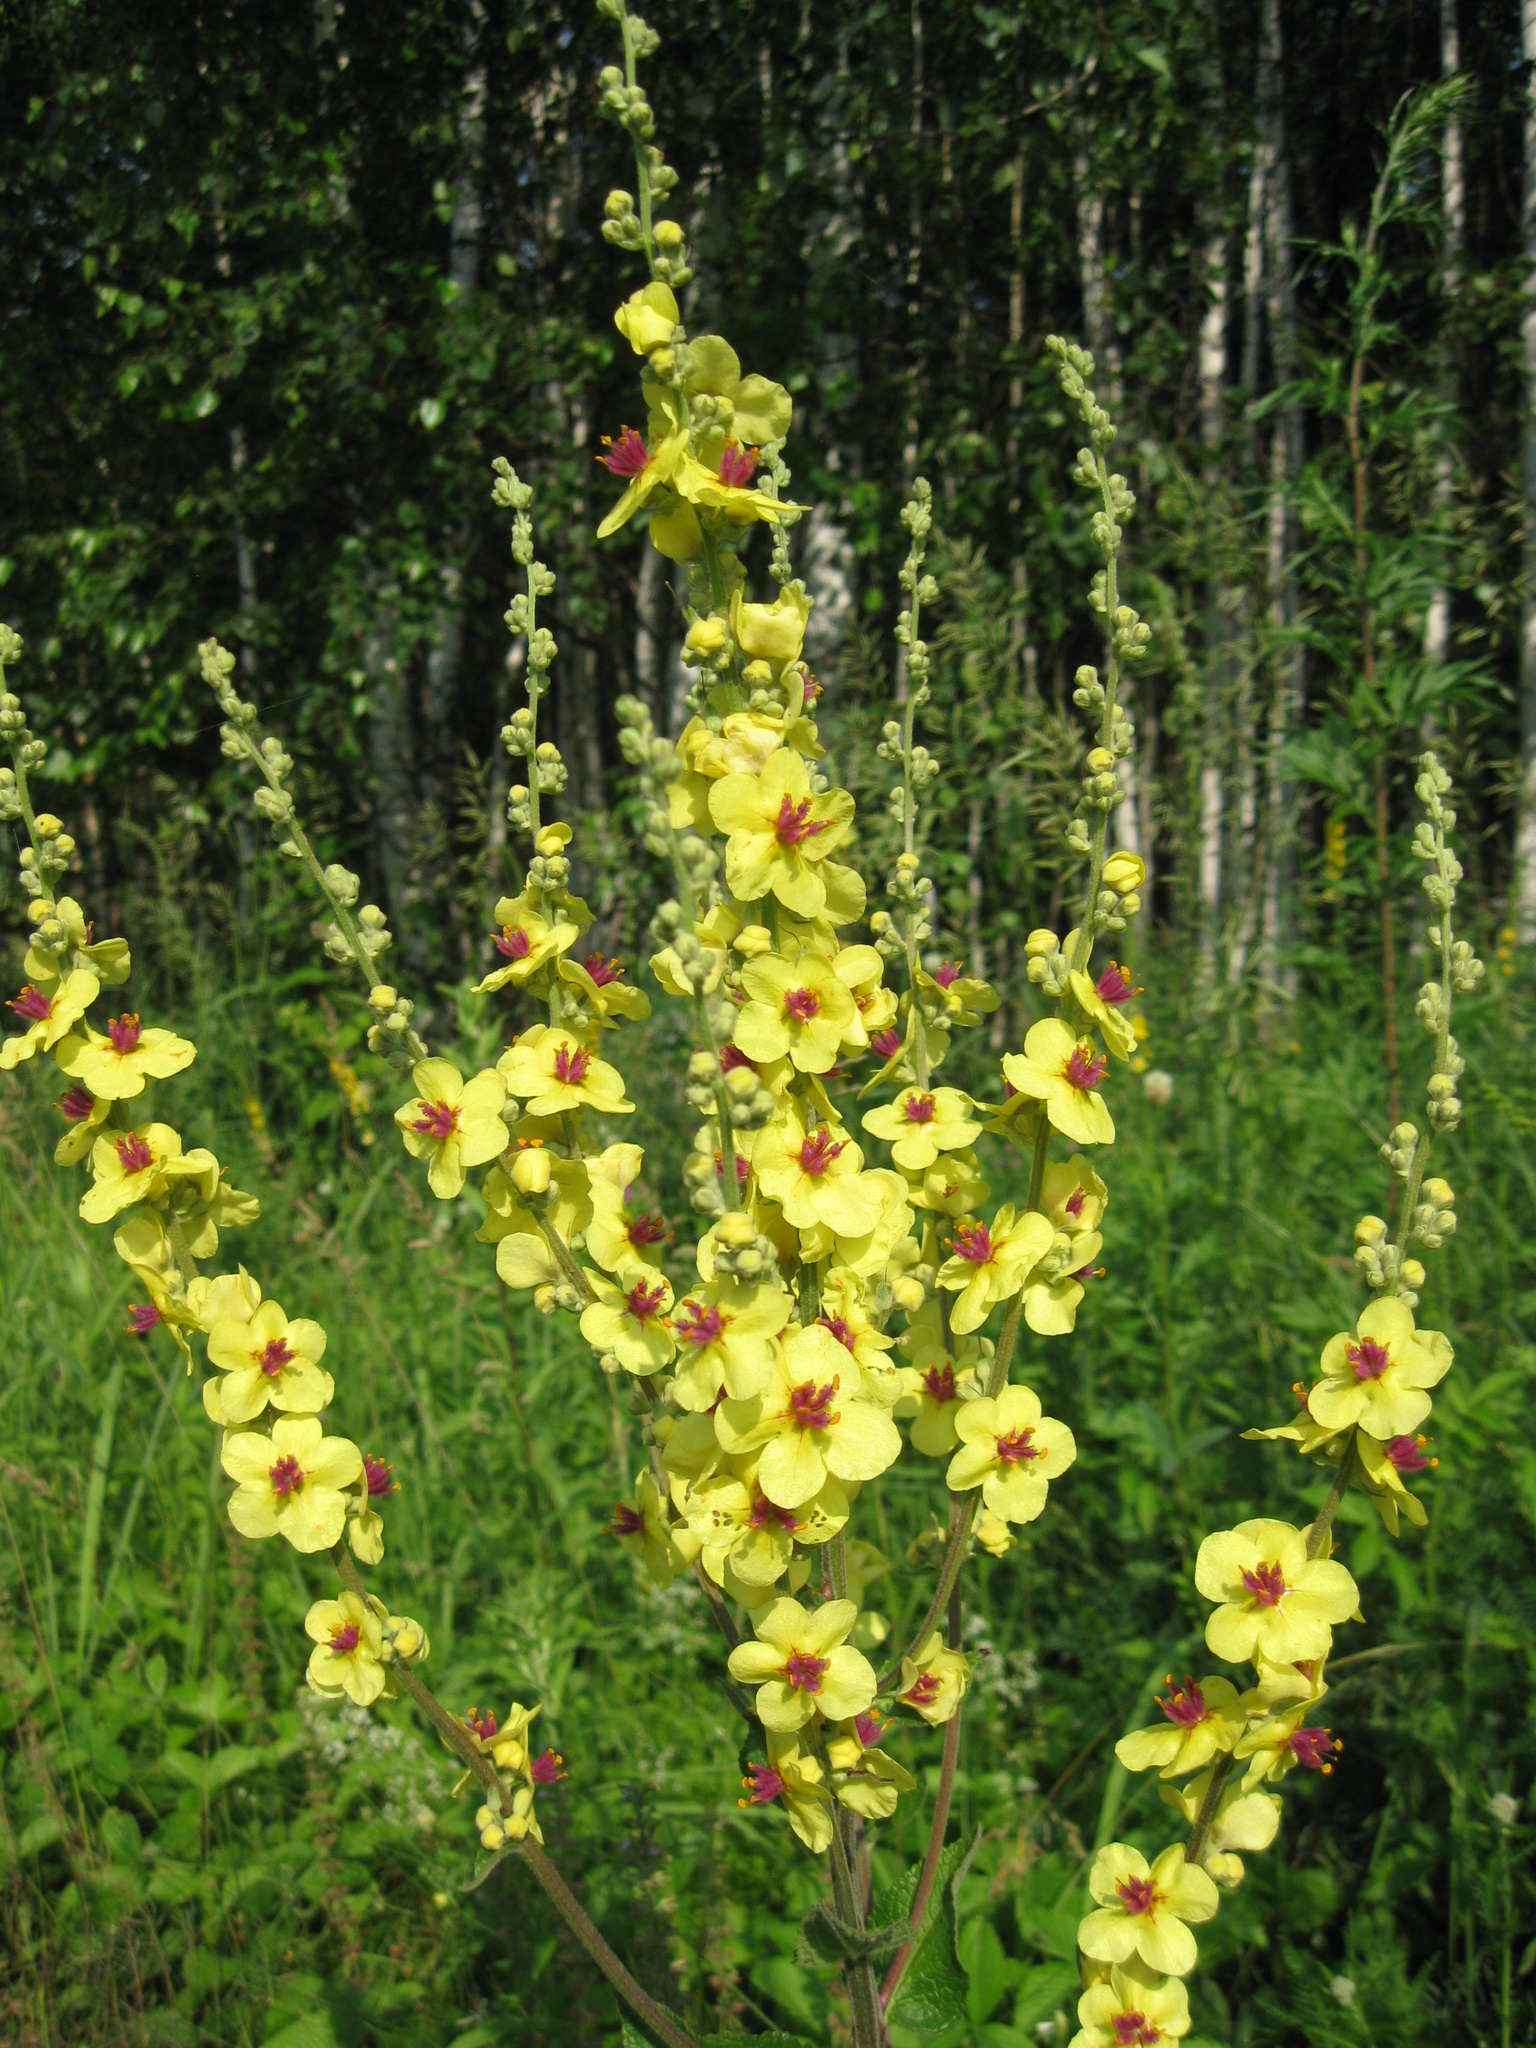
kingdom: Plantae
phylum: Tracheophyta
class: Magnoliopsida
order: Lamiales
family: Scrophulariaceae
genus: Verbascum
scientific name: Verbascum chaixii
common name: Nettle-leaved mullein
